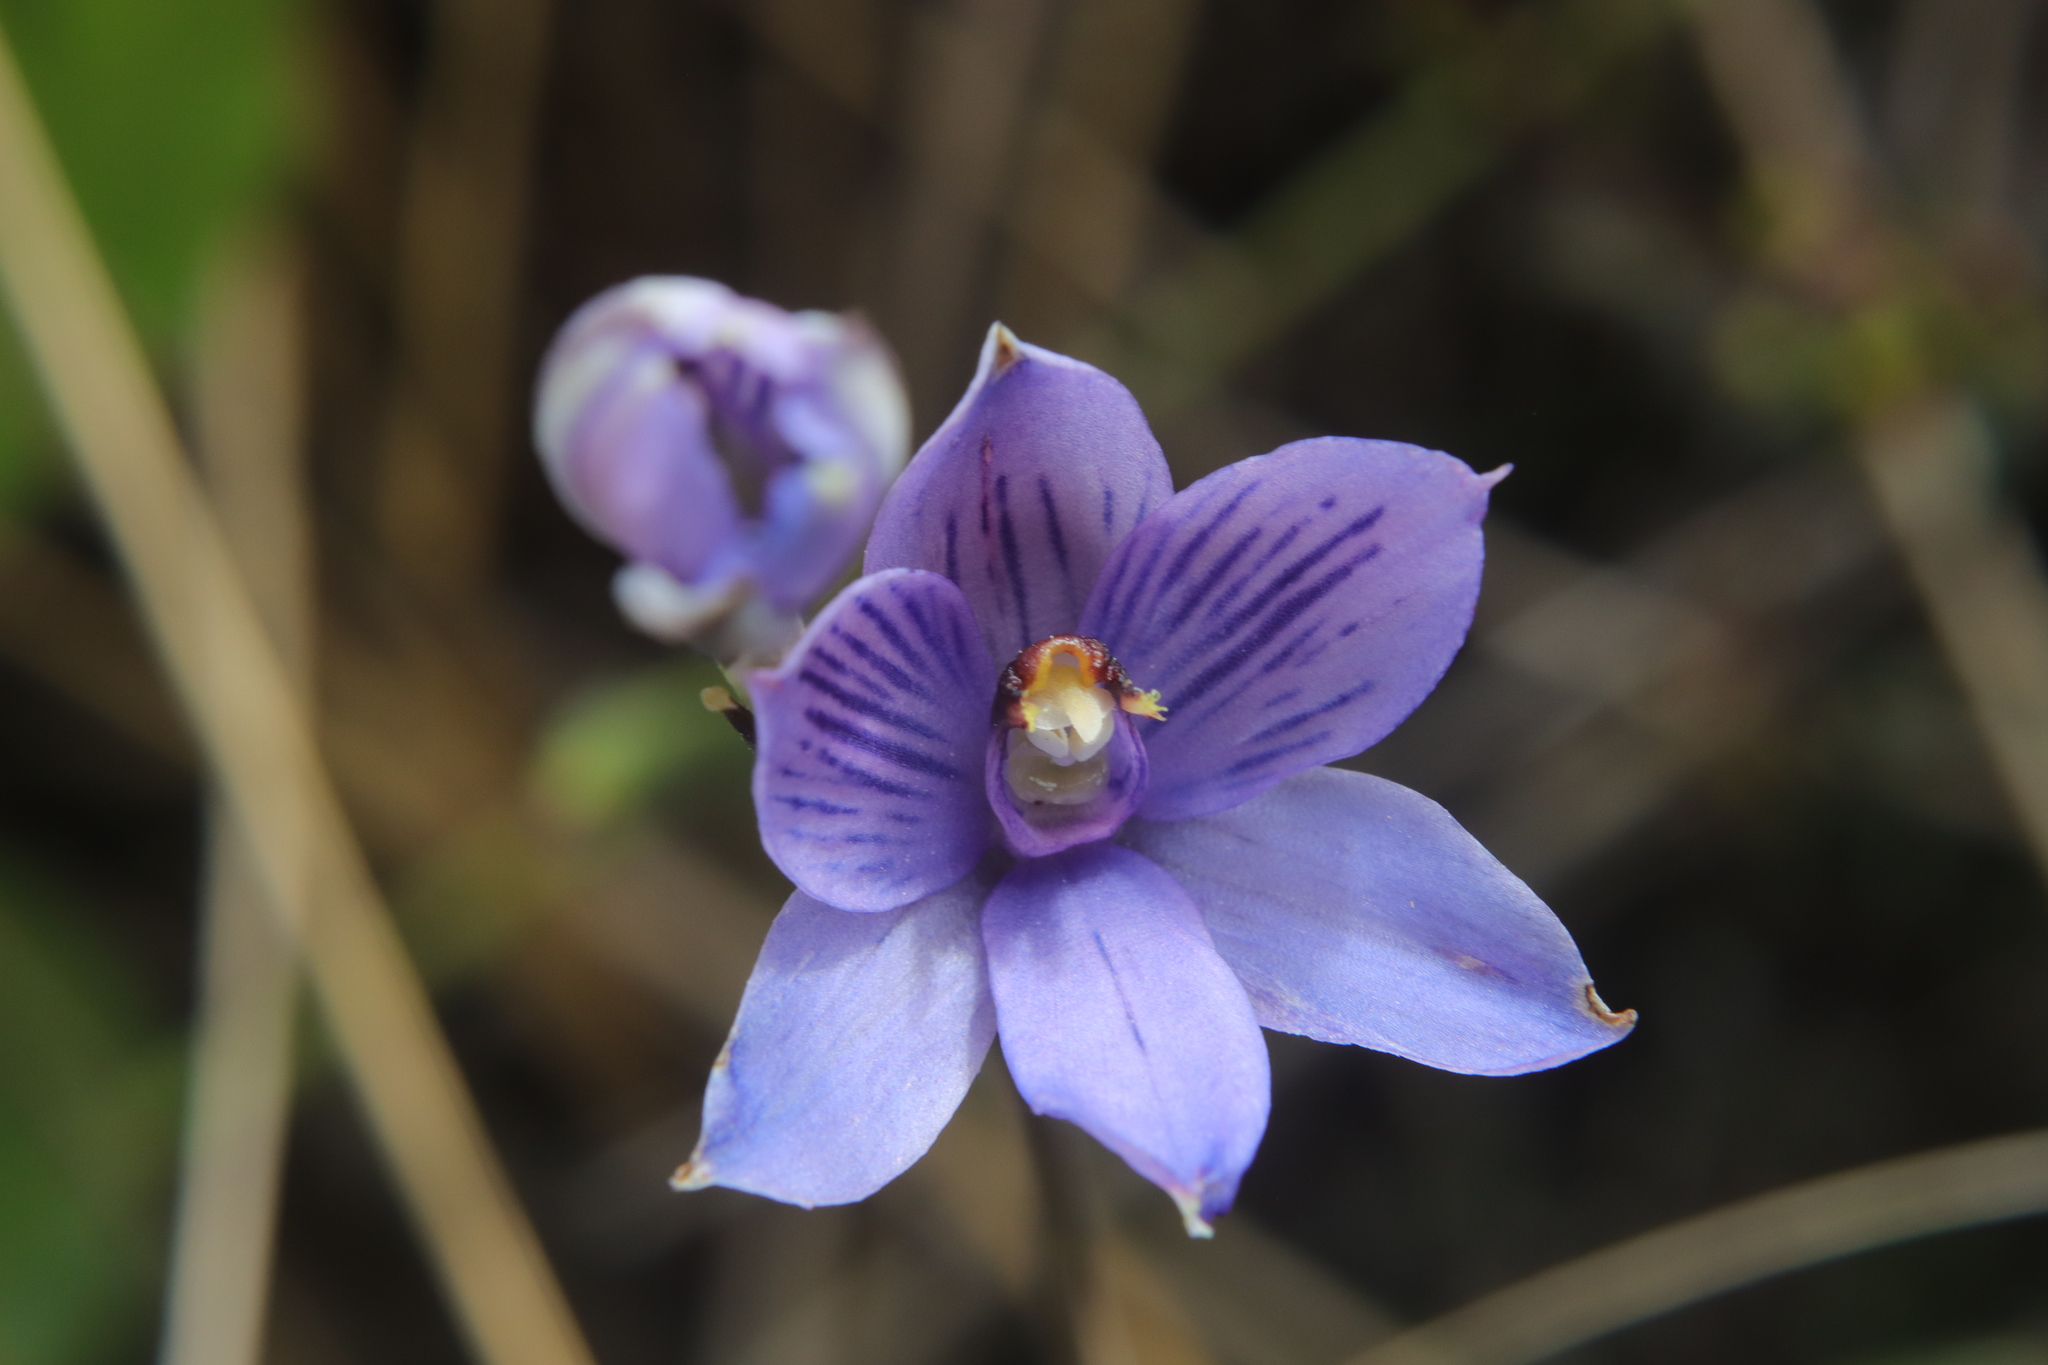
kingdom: Plantae
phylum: Tracheophyta
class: Liliopsida
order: Asparagales
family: Orchidaceae
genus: Thelymitra
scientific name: Thelymitra pulchella
